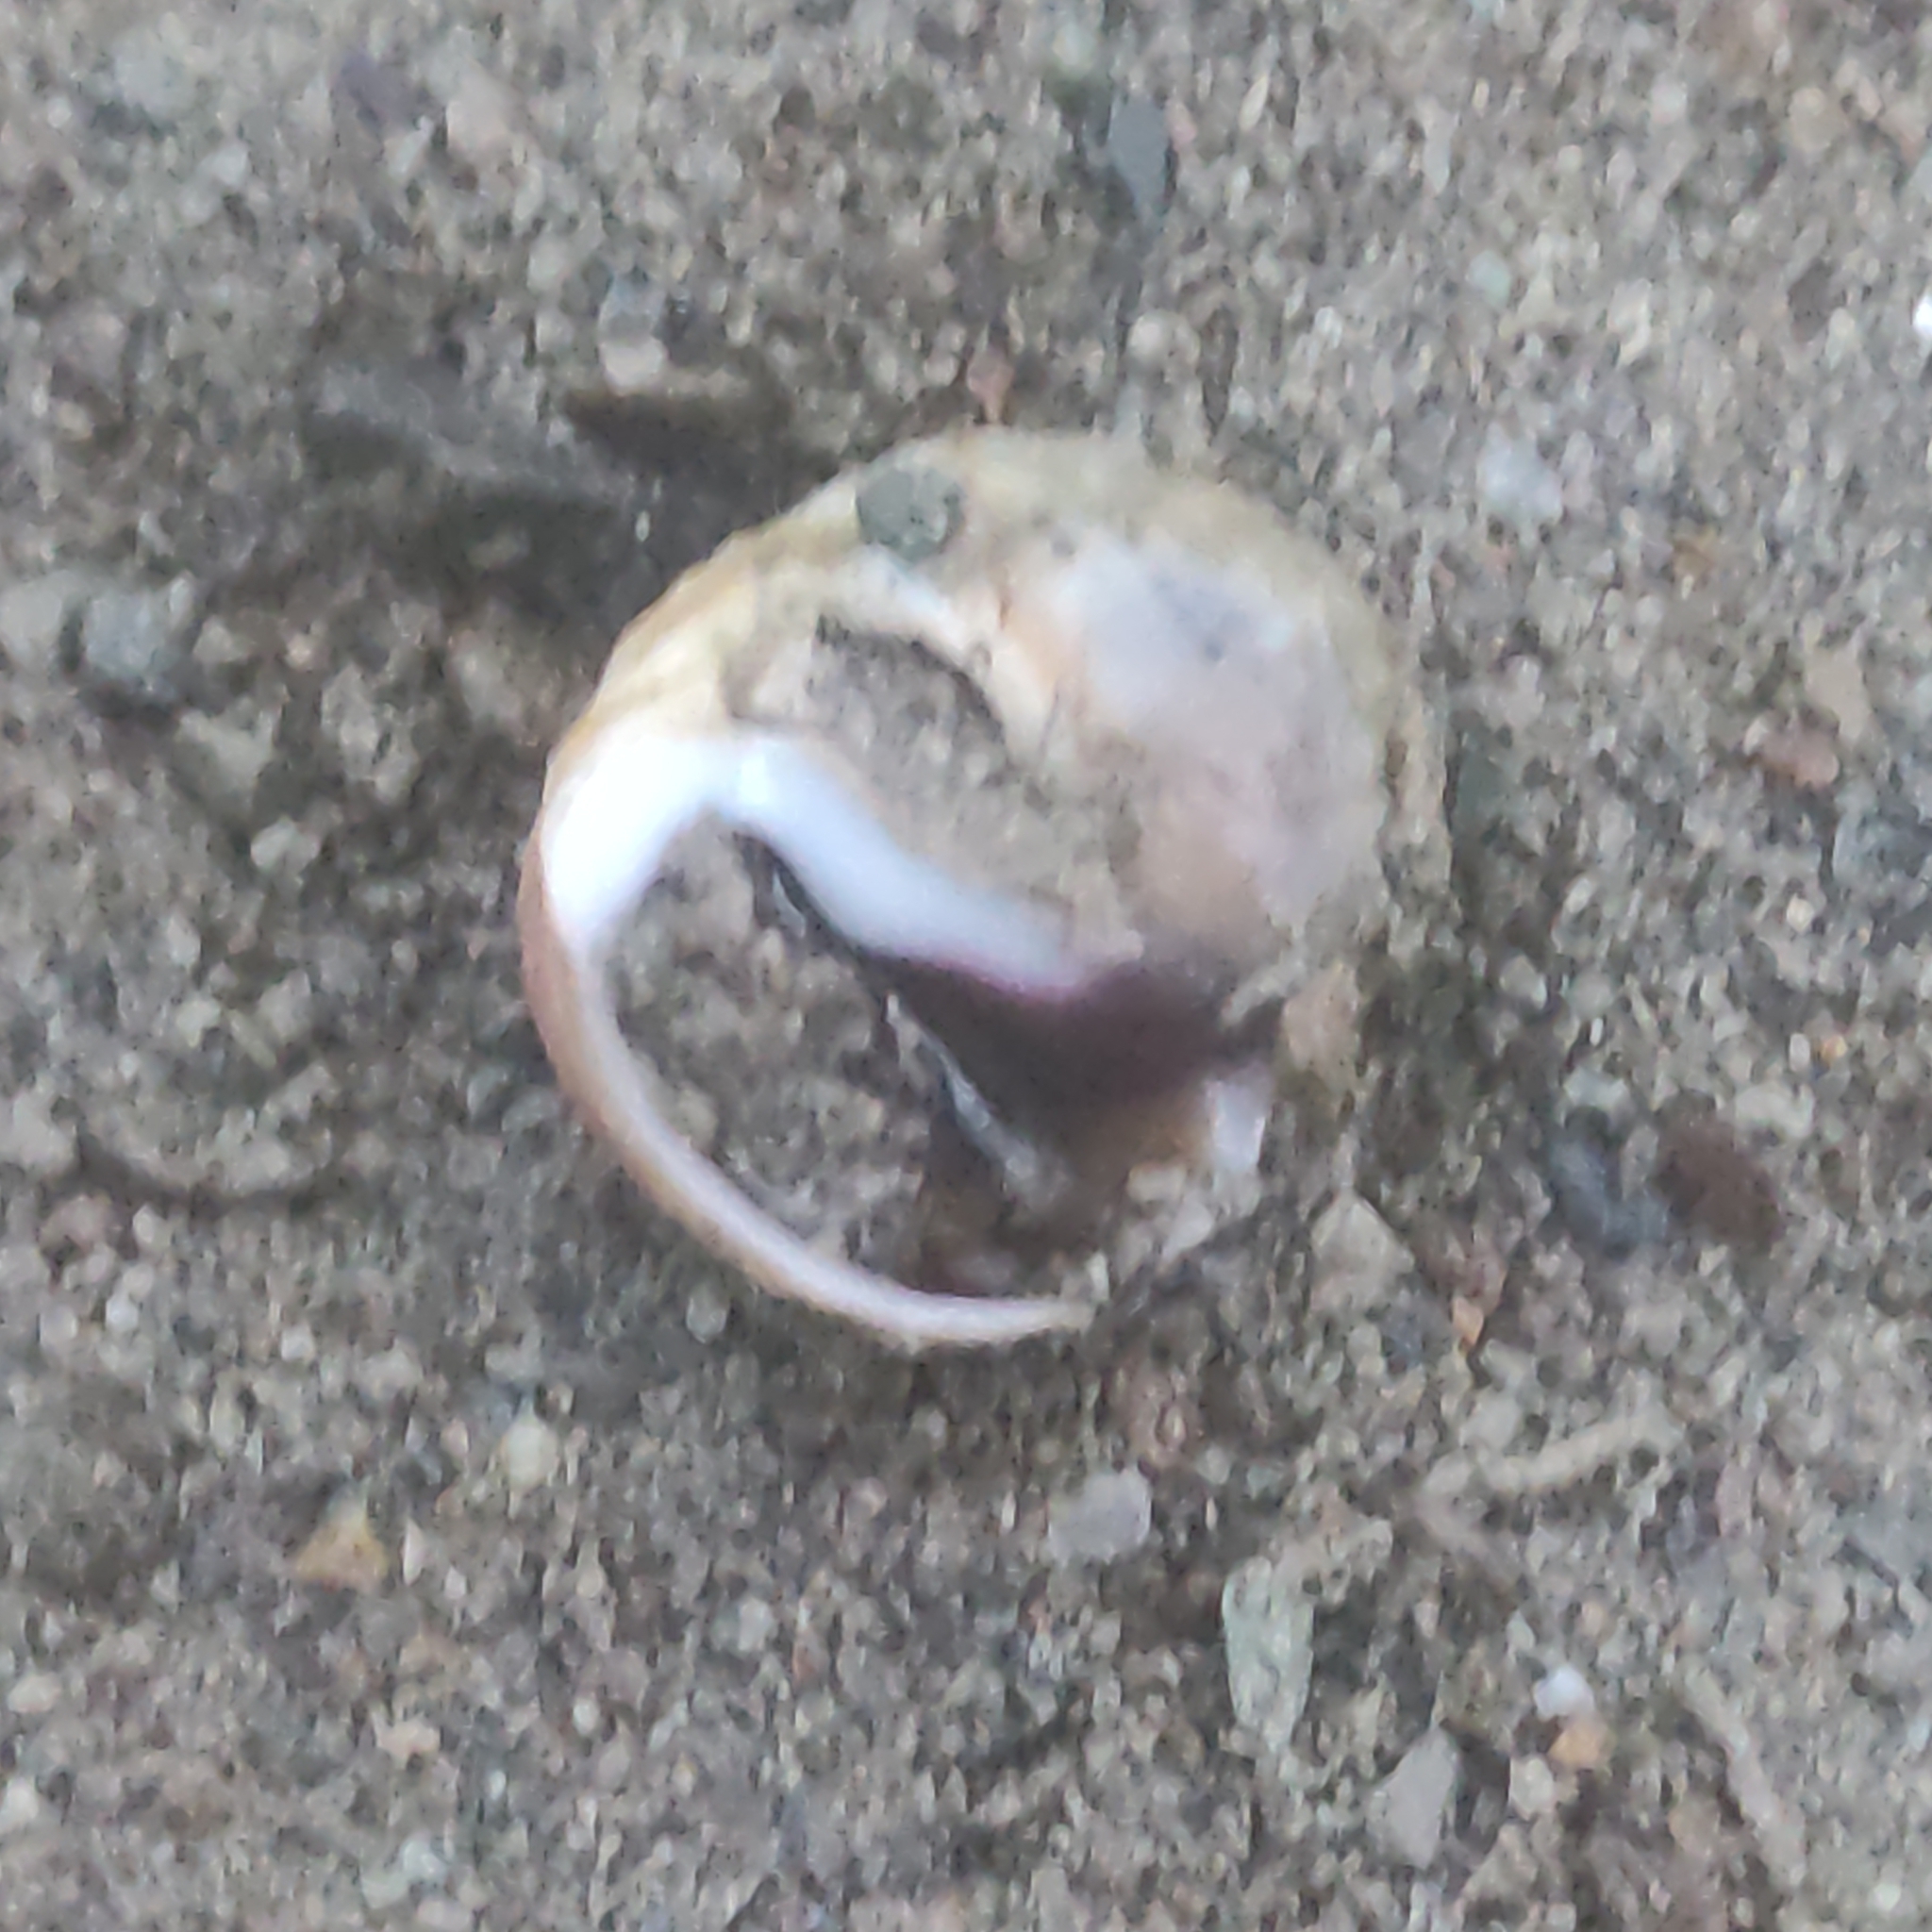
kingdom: Animalia
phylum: Mollusca
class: Gastropoda
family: Amphibolidae
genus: Amphibola
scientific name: Amphibola crenata
